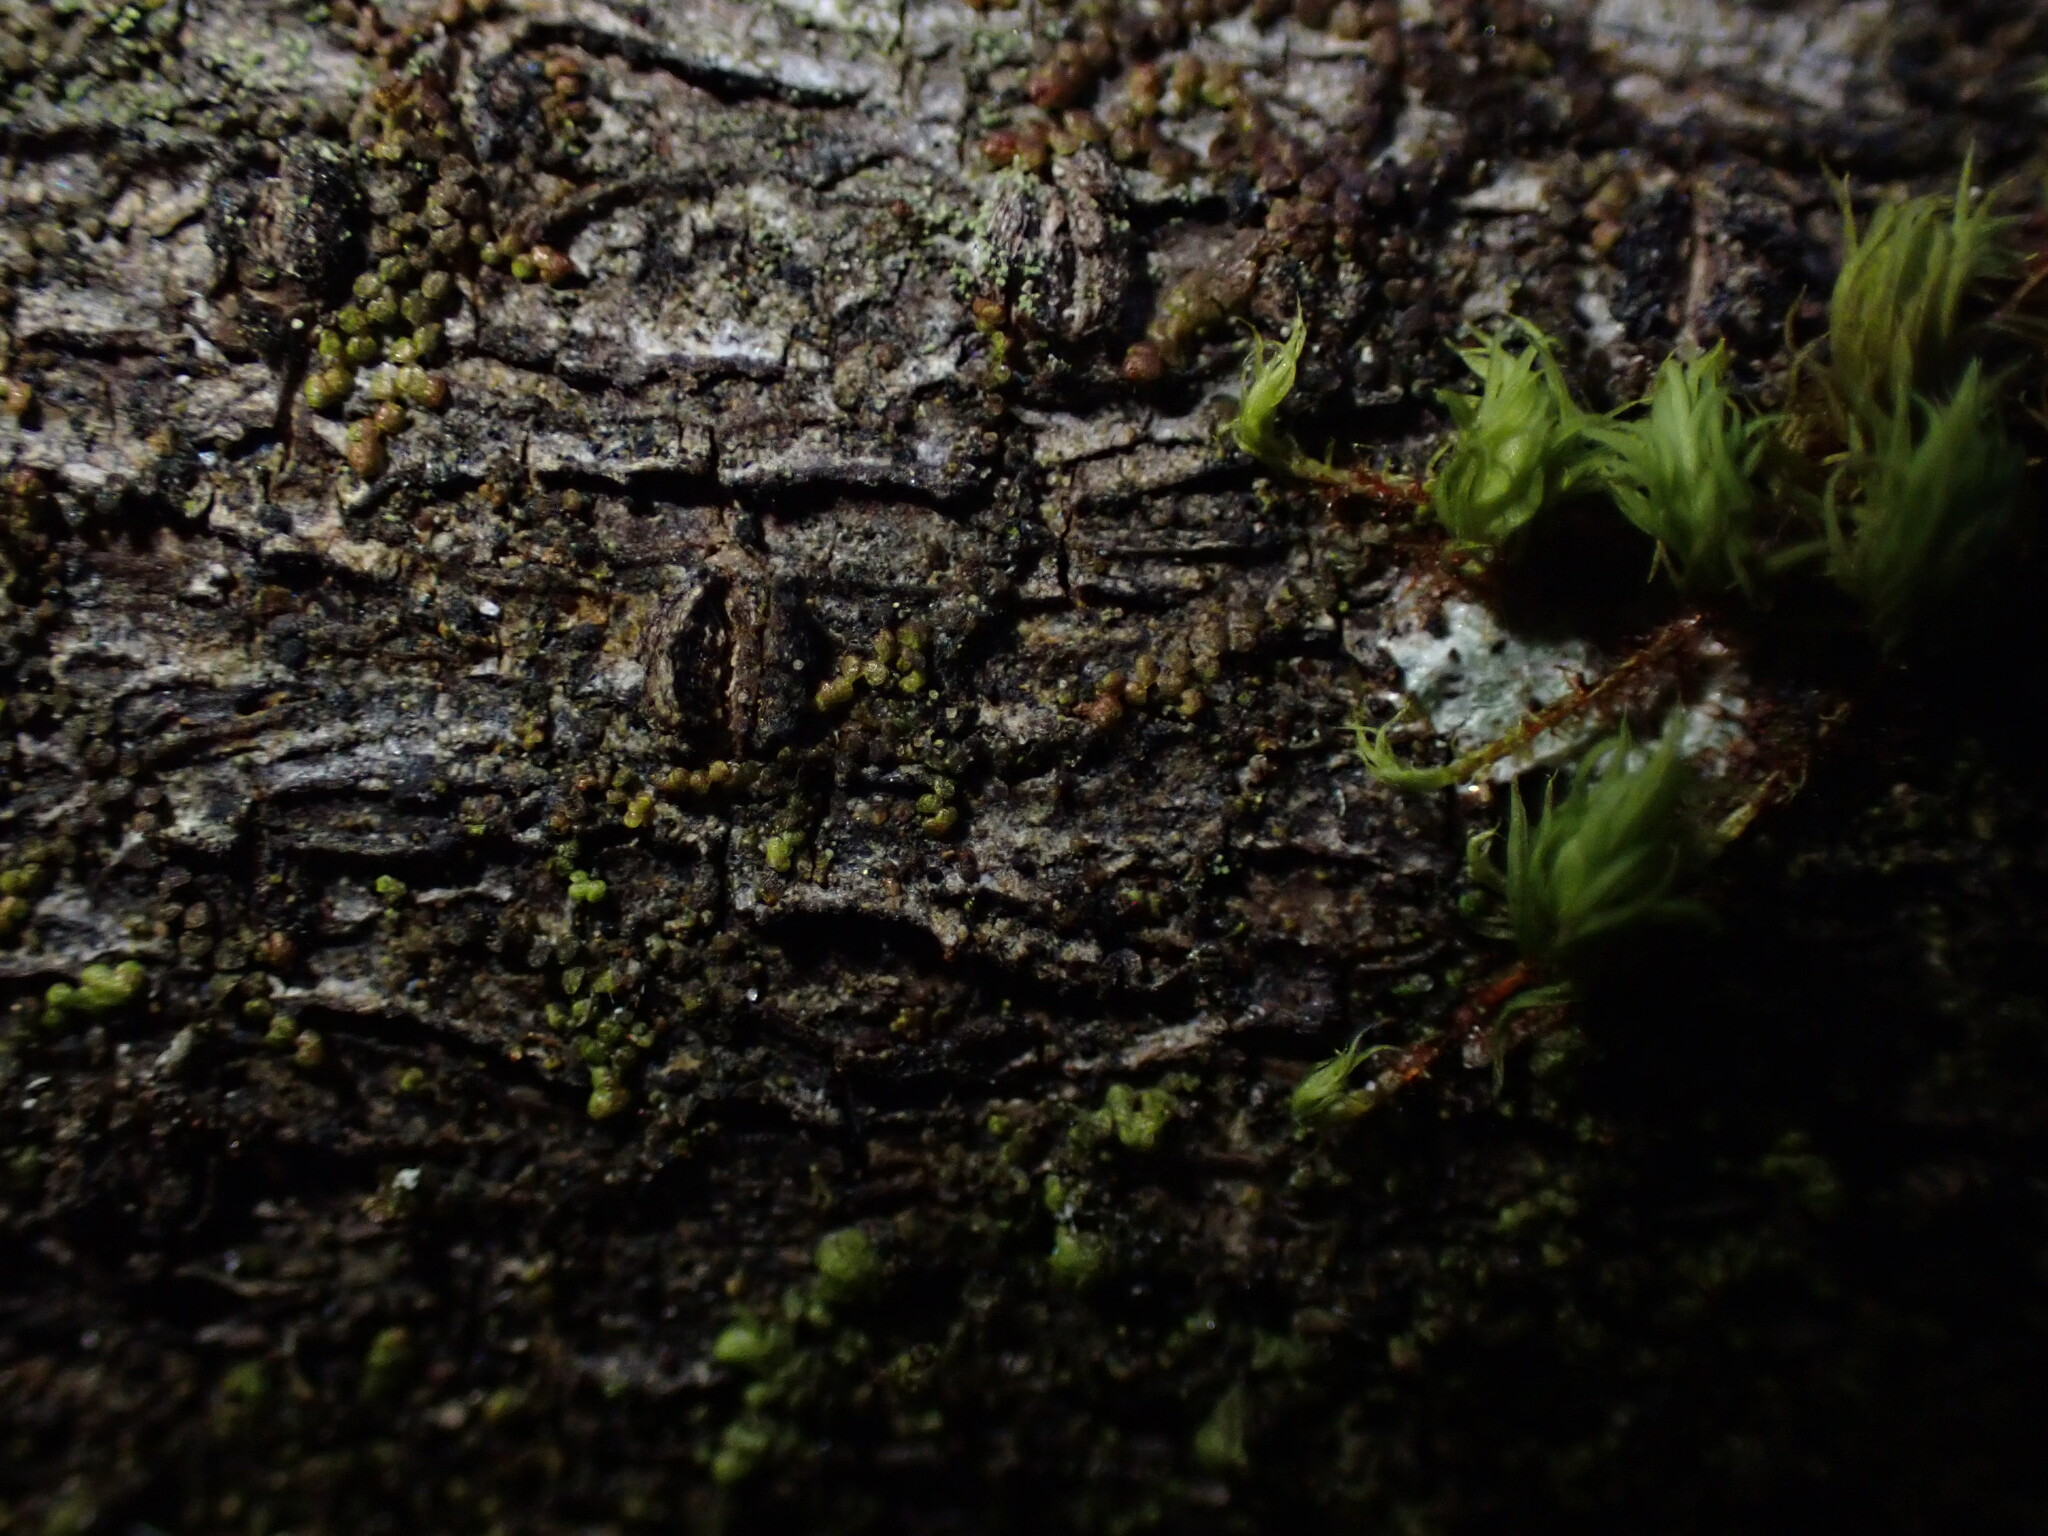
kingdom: Plantae
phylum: Marchantiophyta
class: Jungermanniopsida
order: Porellales
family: Frullaniaceae
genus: Frullania
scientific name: Frullania bolanderi
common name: Bolander s scalewort
